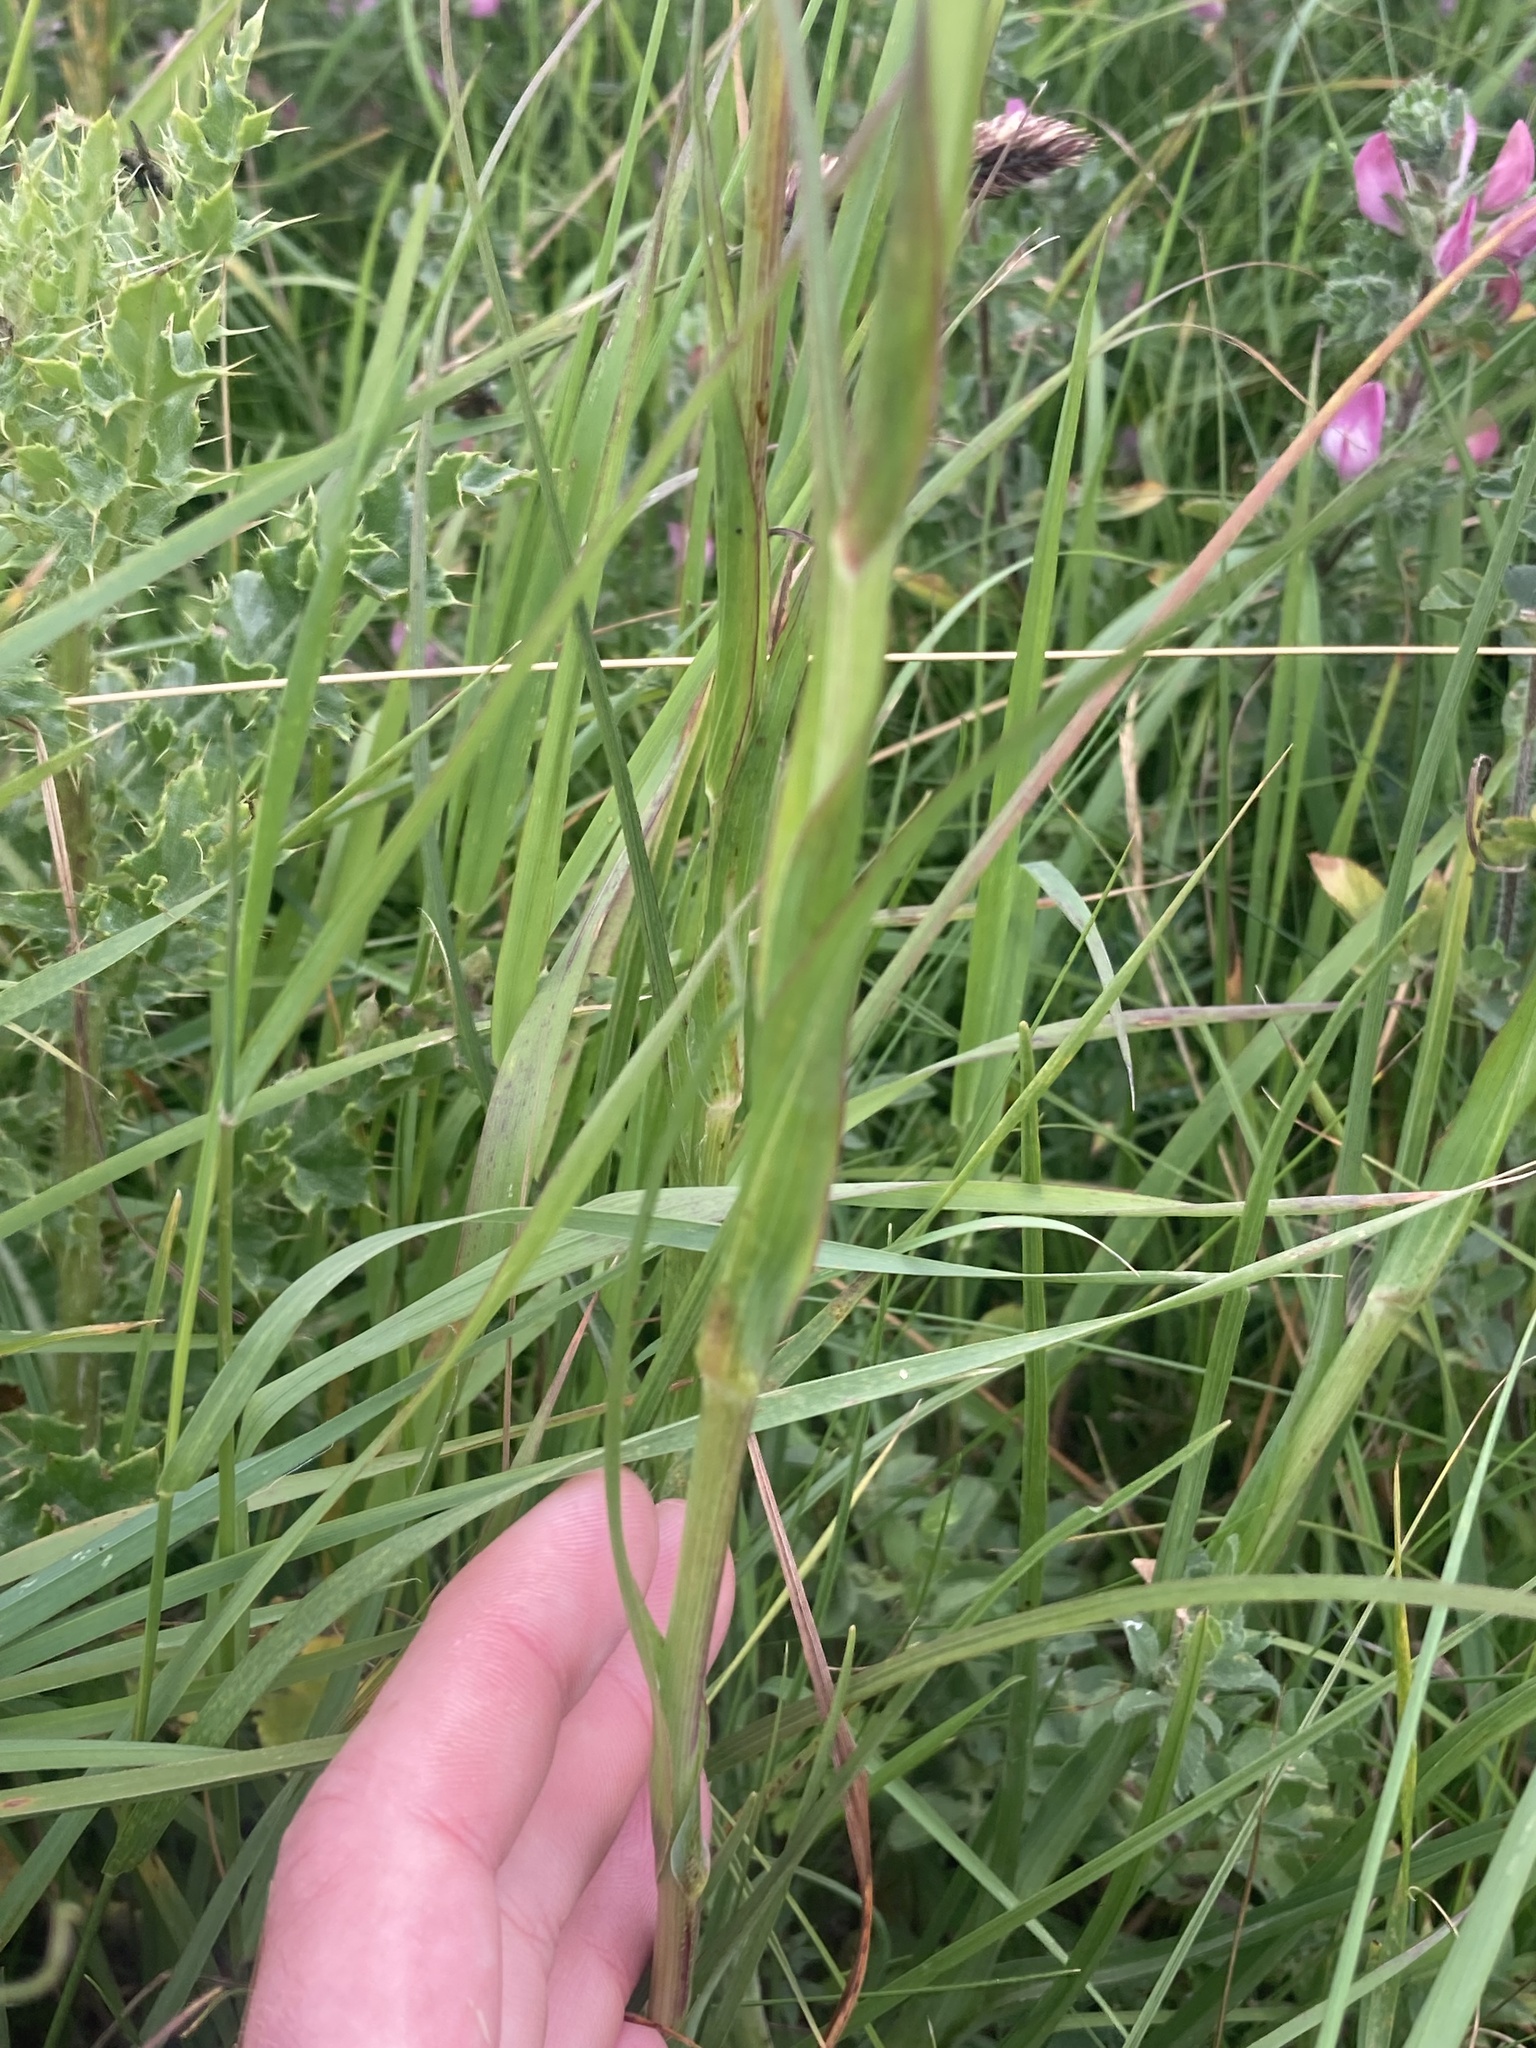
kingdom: Plantae
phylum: Tracheophyta
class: Magnoliopsida
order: Asterales
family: Asteraceae
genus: Tragopogon
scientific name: Tragopogon minor
